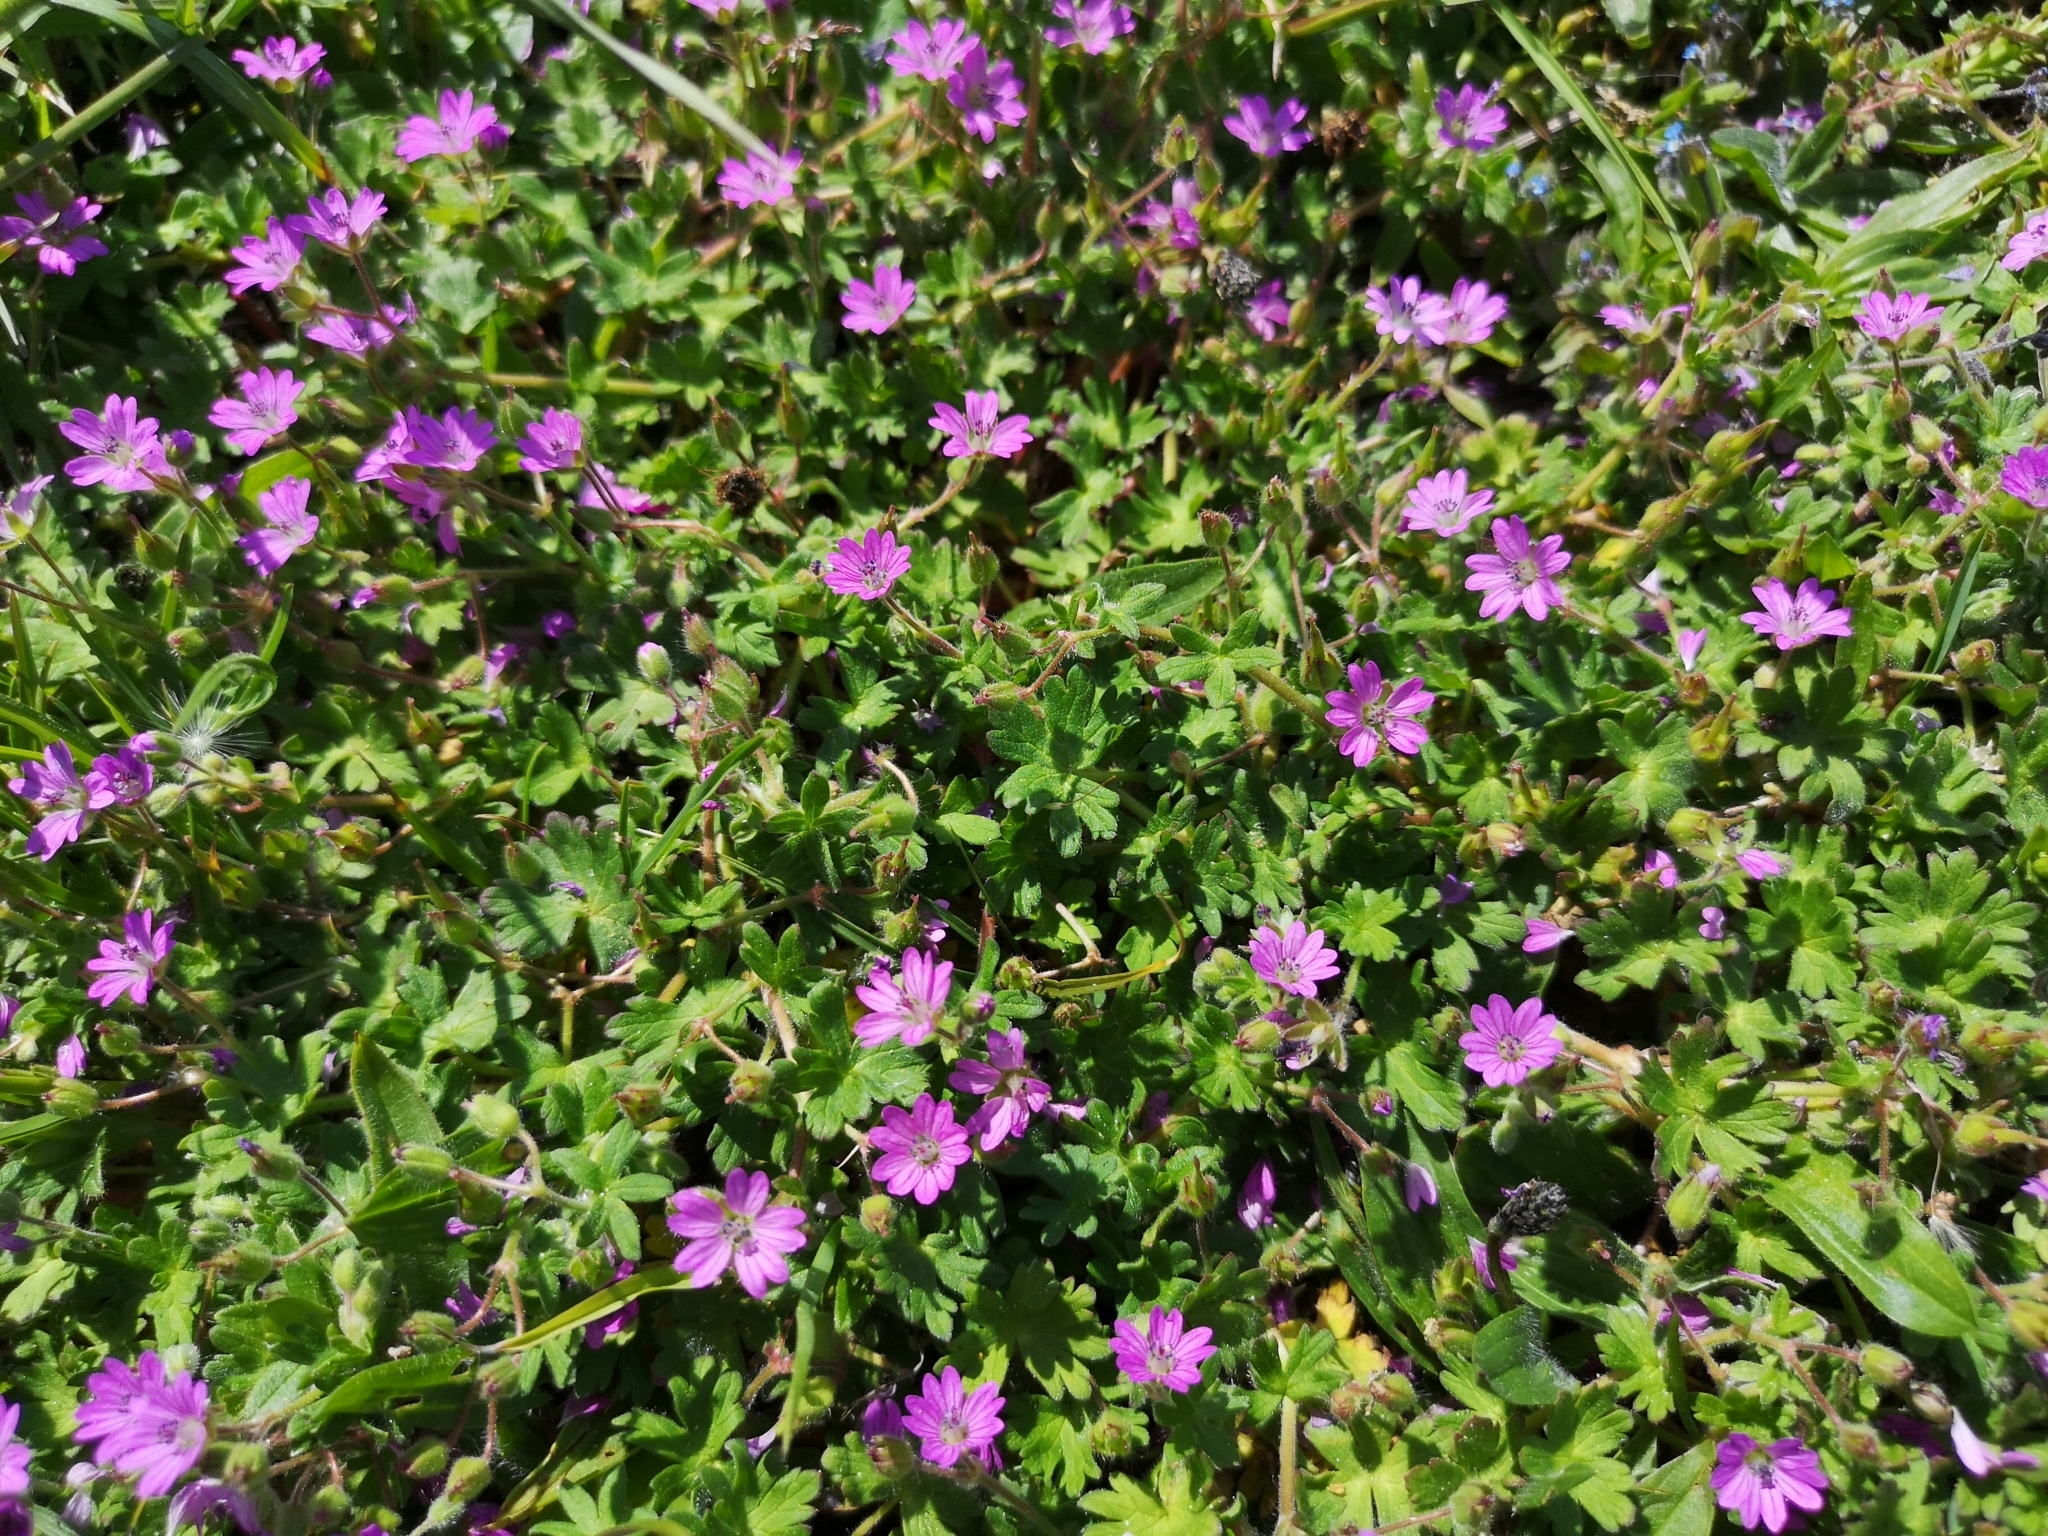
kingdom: Plantae
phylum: Tracheophyta
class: Magnoliopsida
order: Geraniales
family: Geraniaceae
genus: Geranium
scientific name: Geranium molle
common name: Dove's-foot crane's-bill
